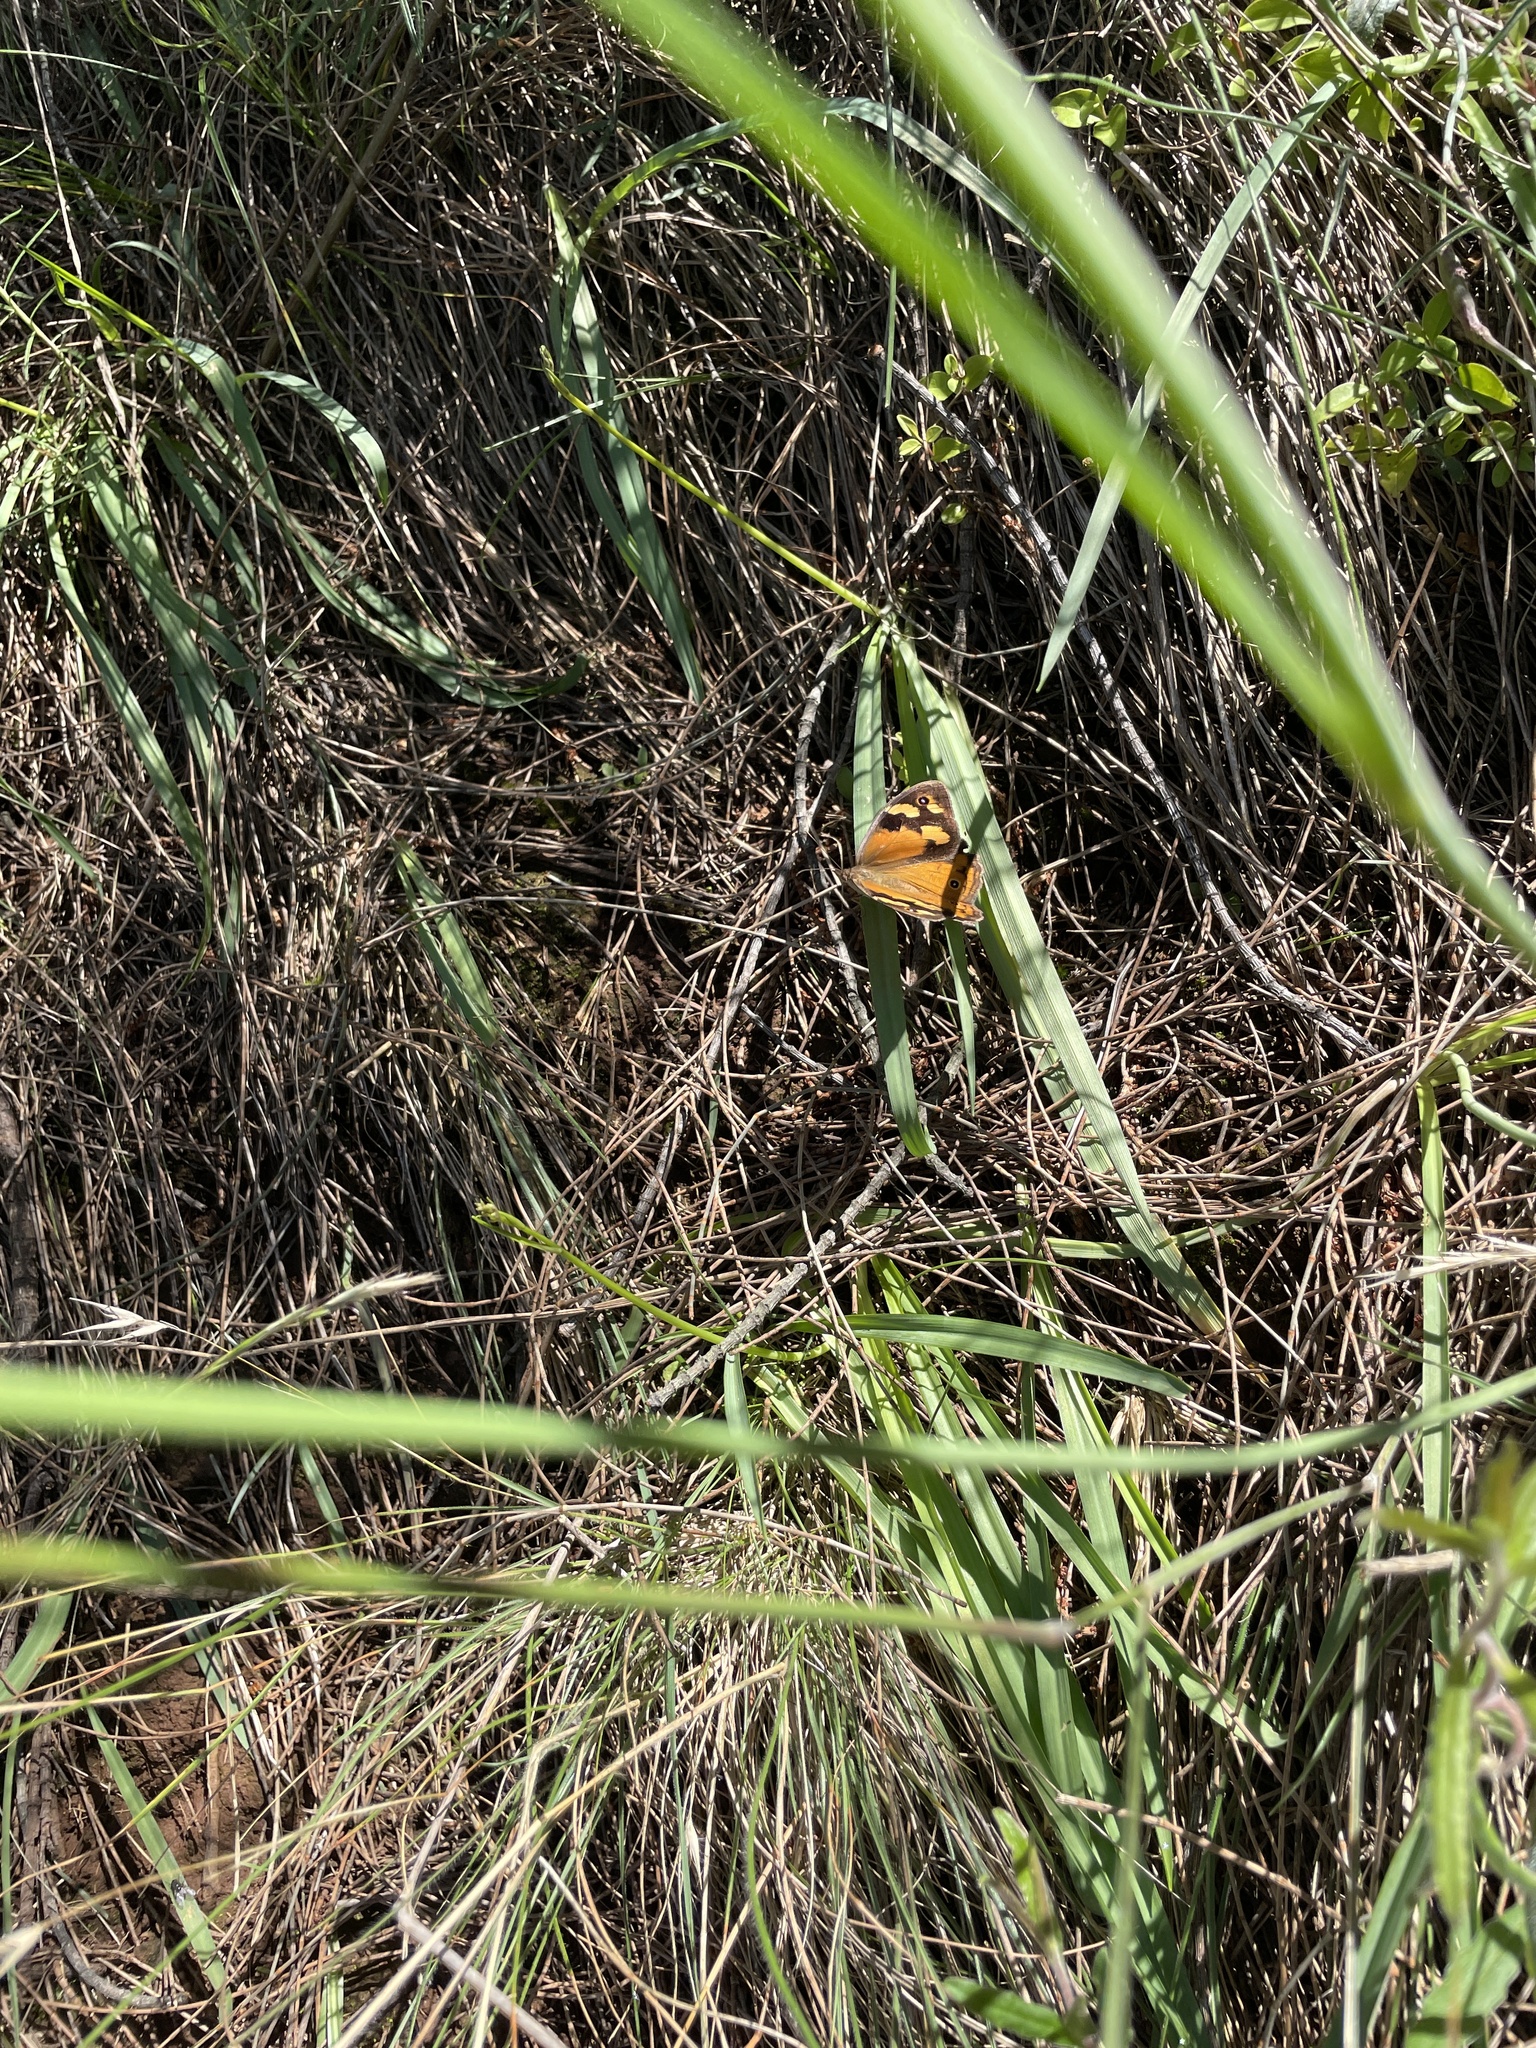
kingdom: Animalia
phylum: Arthropoda
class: Insecta
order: Lepidoptera
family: Nymphalidae
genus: Heteronympha
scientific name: Heteronympha merope
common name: Common brown
